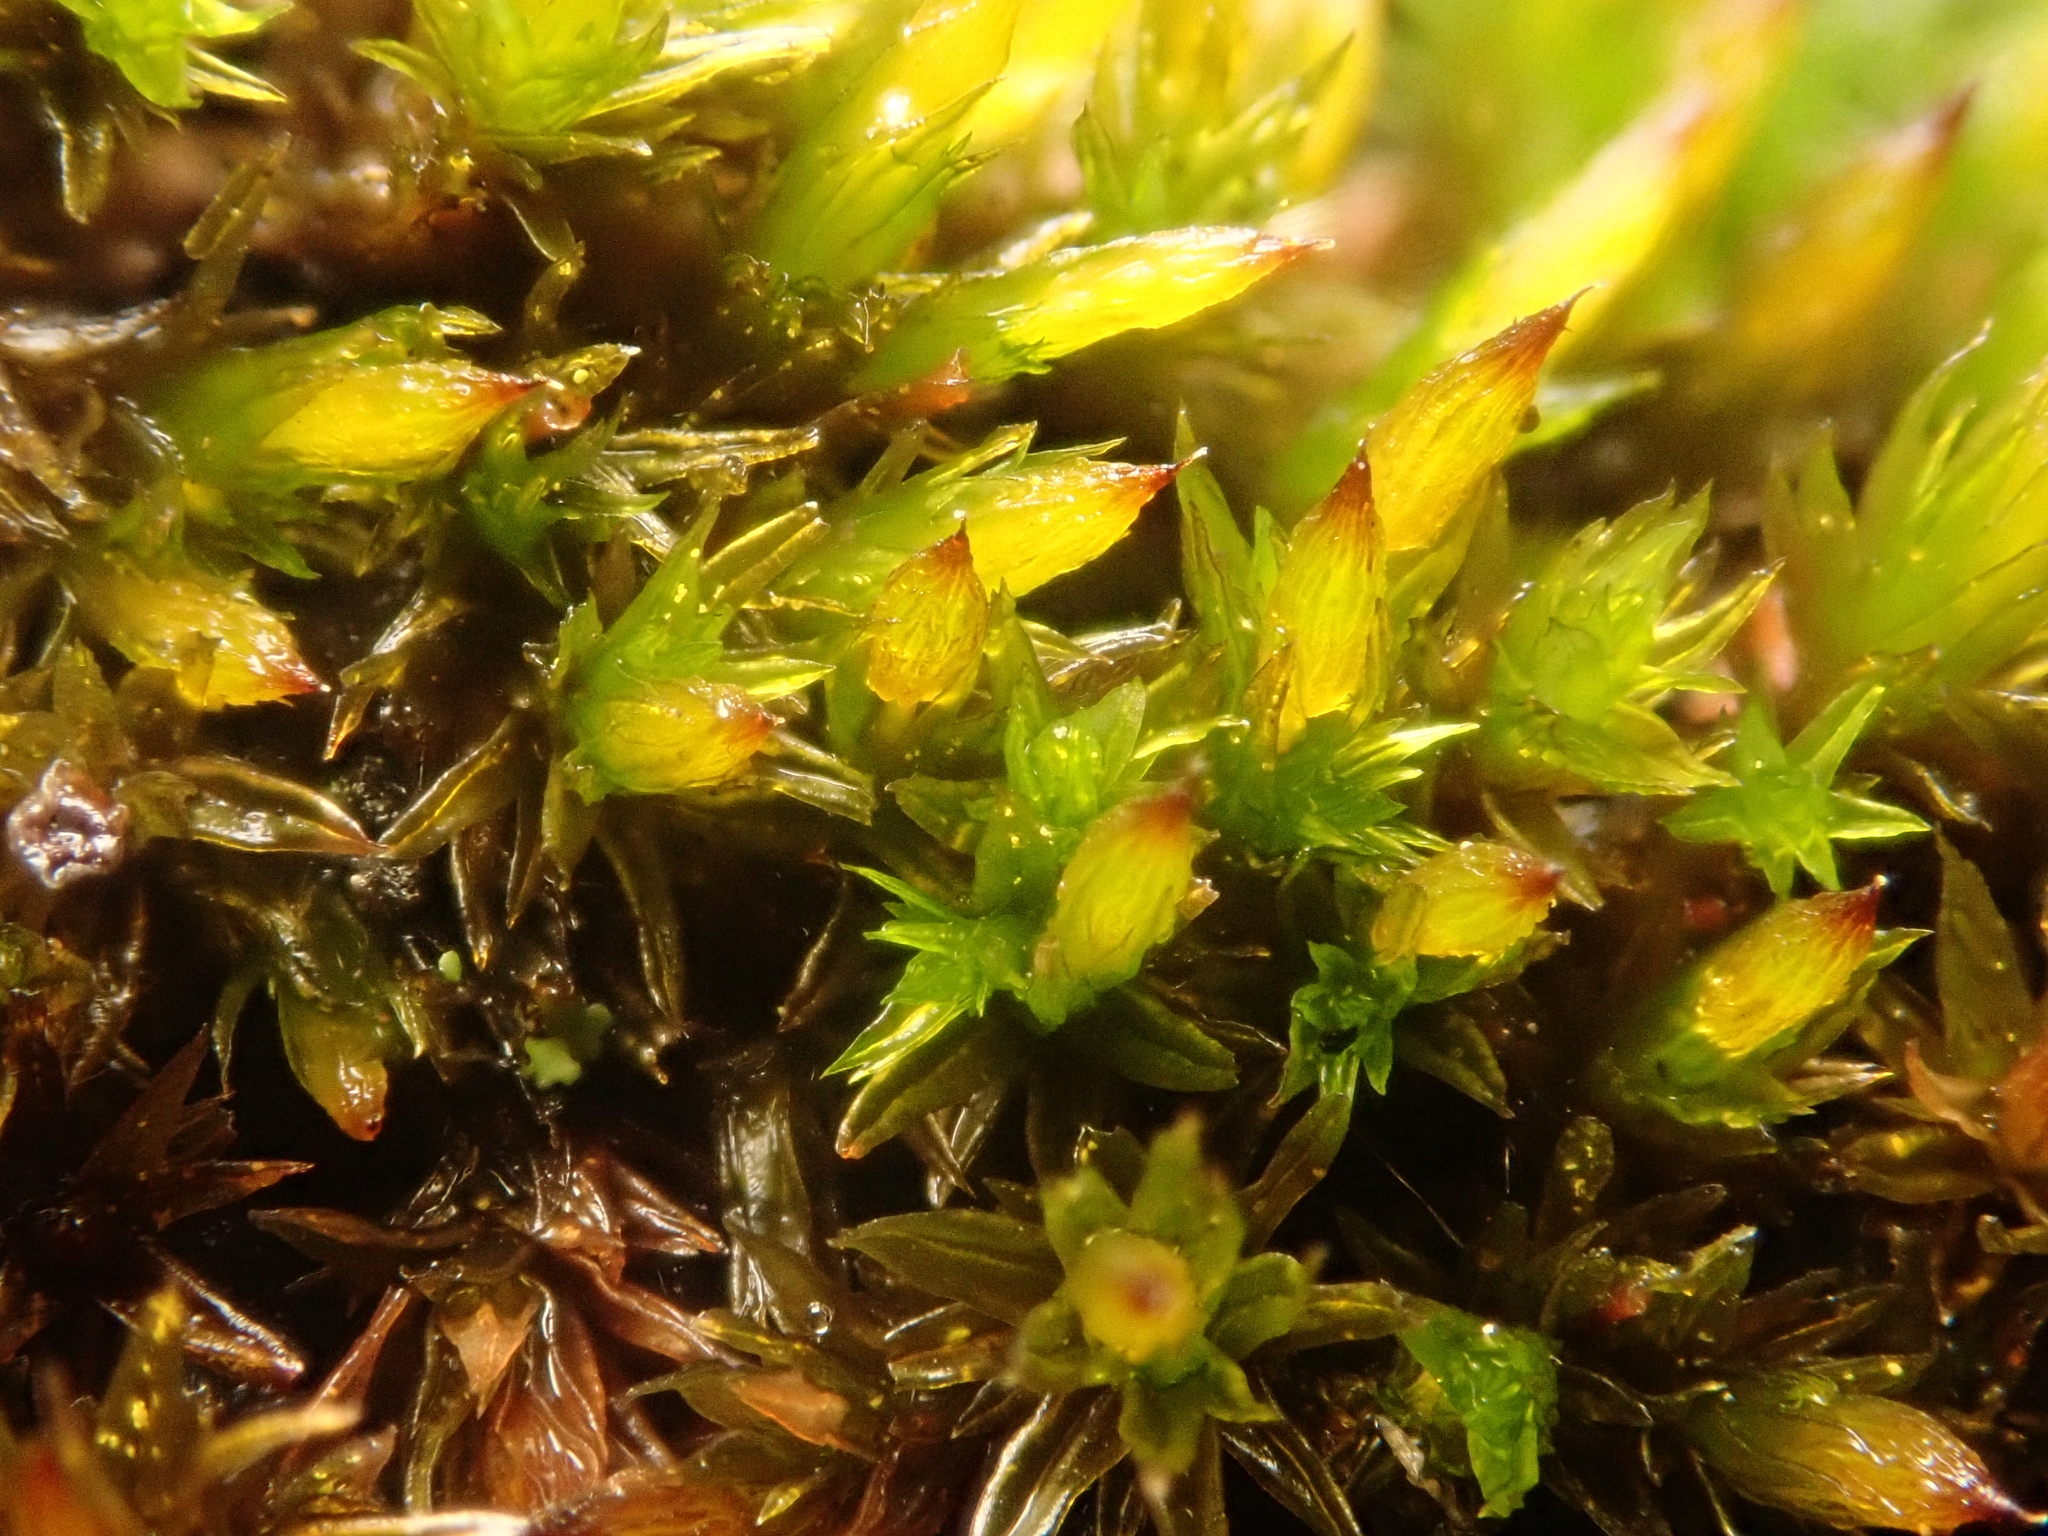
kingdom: Plantae
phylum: Bryophyta
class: Bryopsida
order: Orthotrichales
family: Orthotrichaceae
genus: Orthotrichum
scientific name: Orthotrichum anomalum
